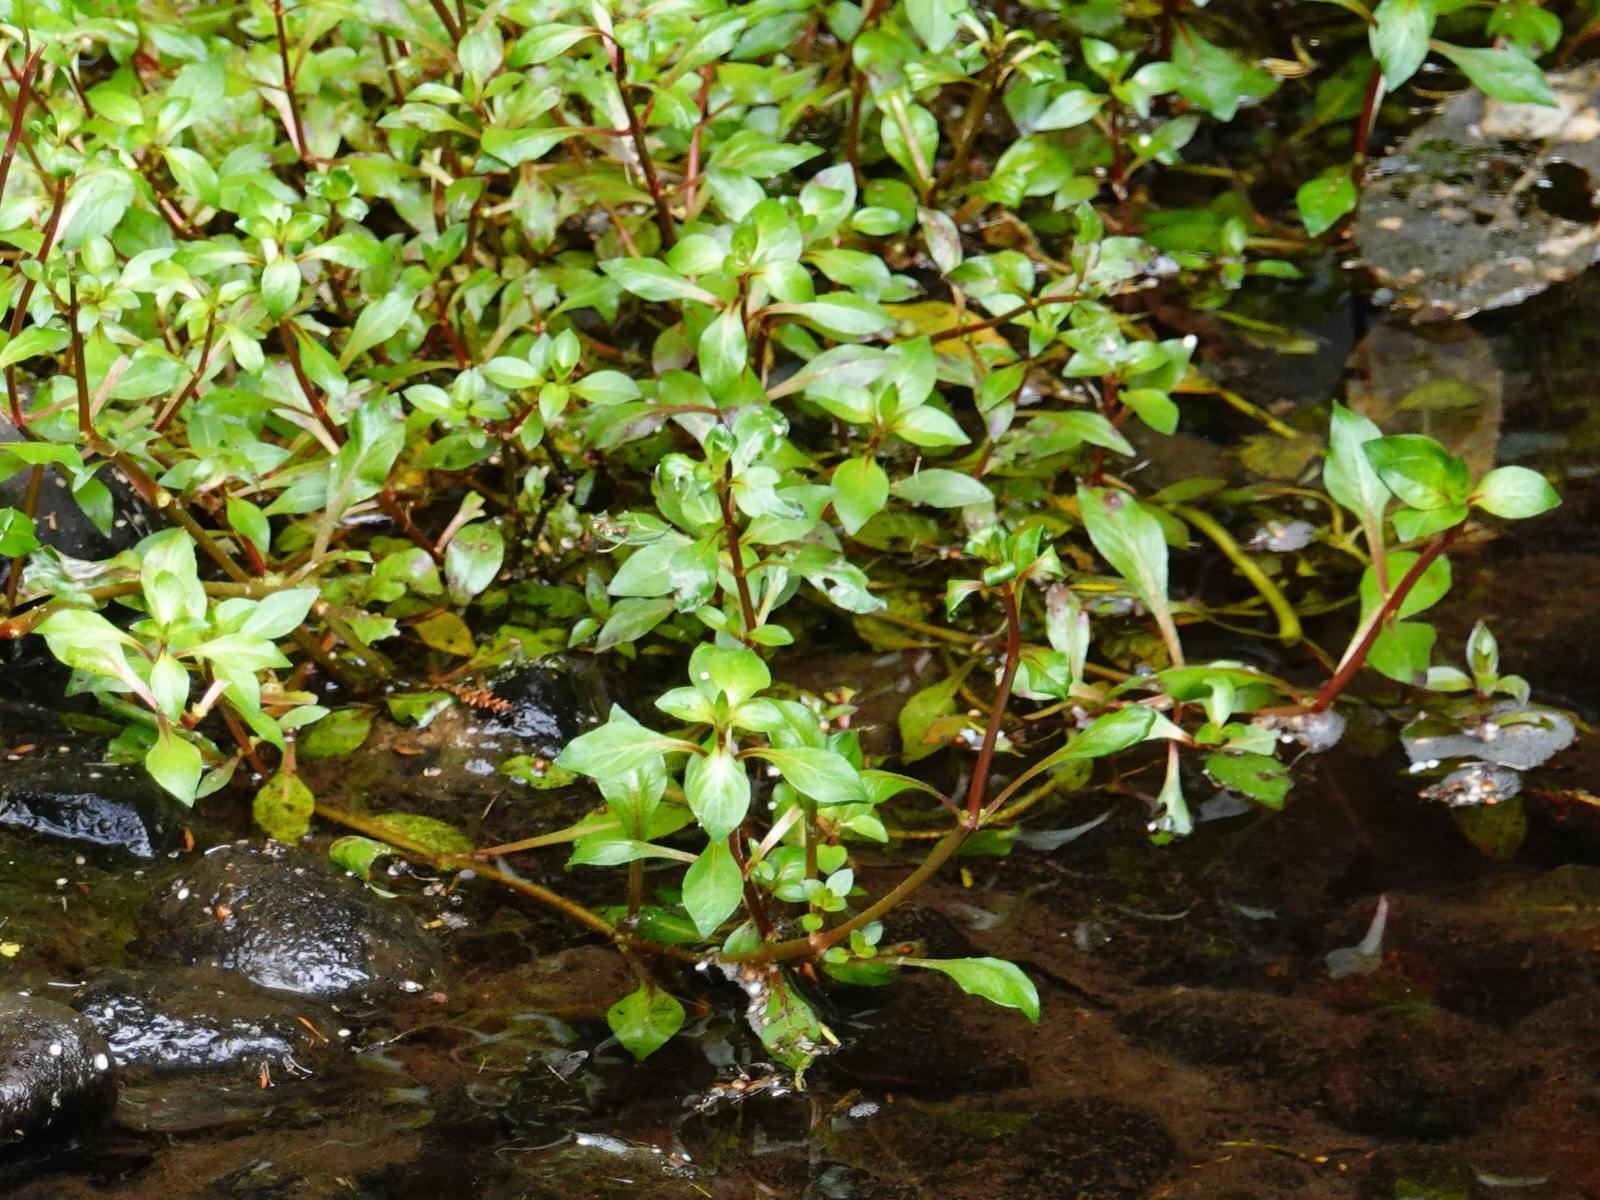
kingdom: Plantae
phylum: Tracheophyta
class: Magnoliopsida
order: Myrtales
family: Onagraceae
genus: Ludwigia
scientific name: Ludwigia palustris
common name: Hampshire-purslane
